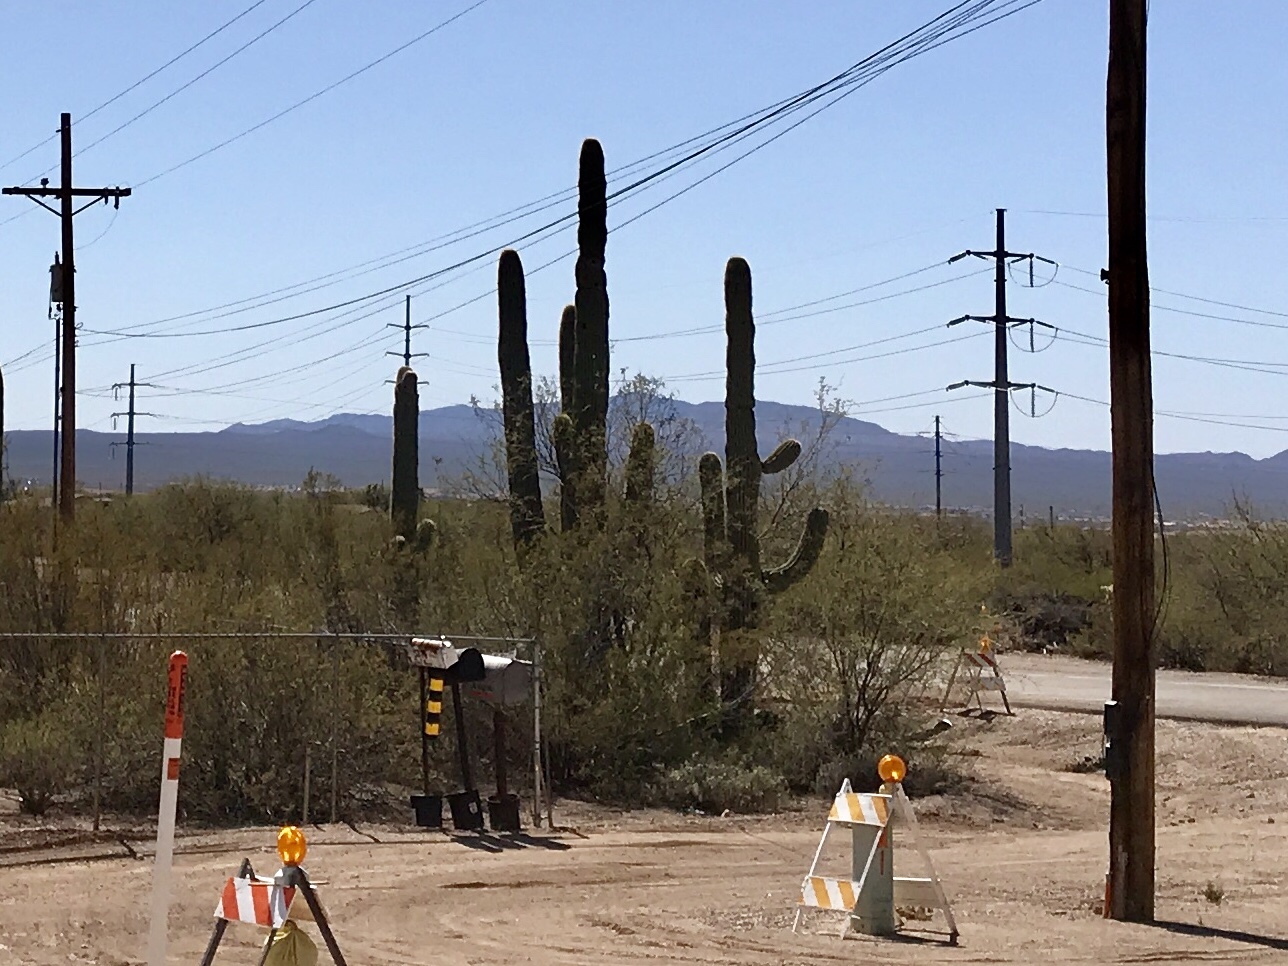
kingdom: Plantae
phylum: Tracheophyta
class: Magnoliopsida
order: Caryophyllales
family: Cactaceae
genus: Carnegiea
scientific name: Carnegiea gigantea
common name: Saguaro
